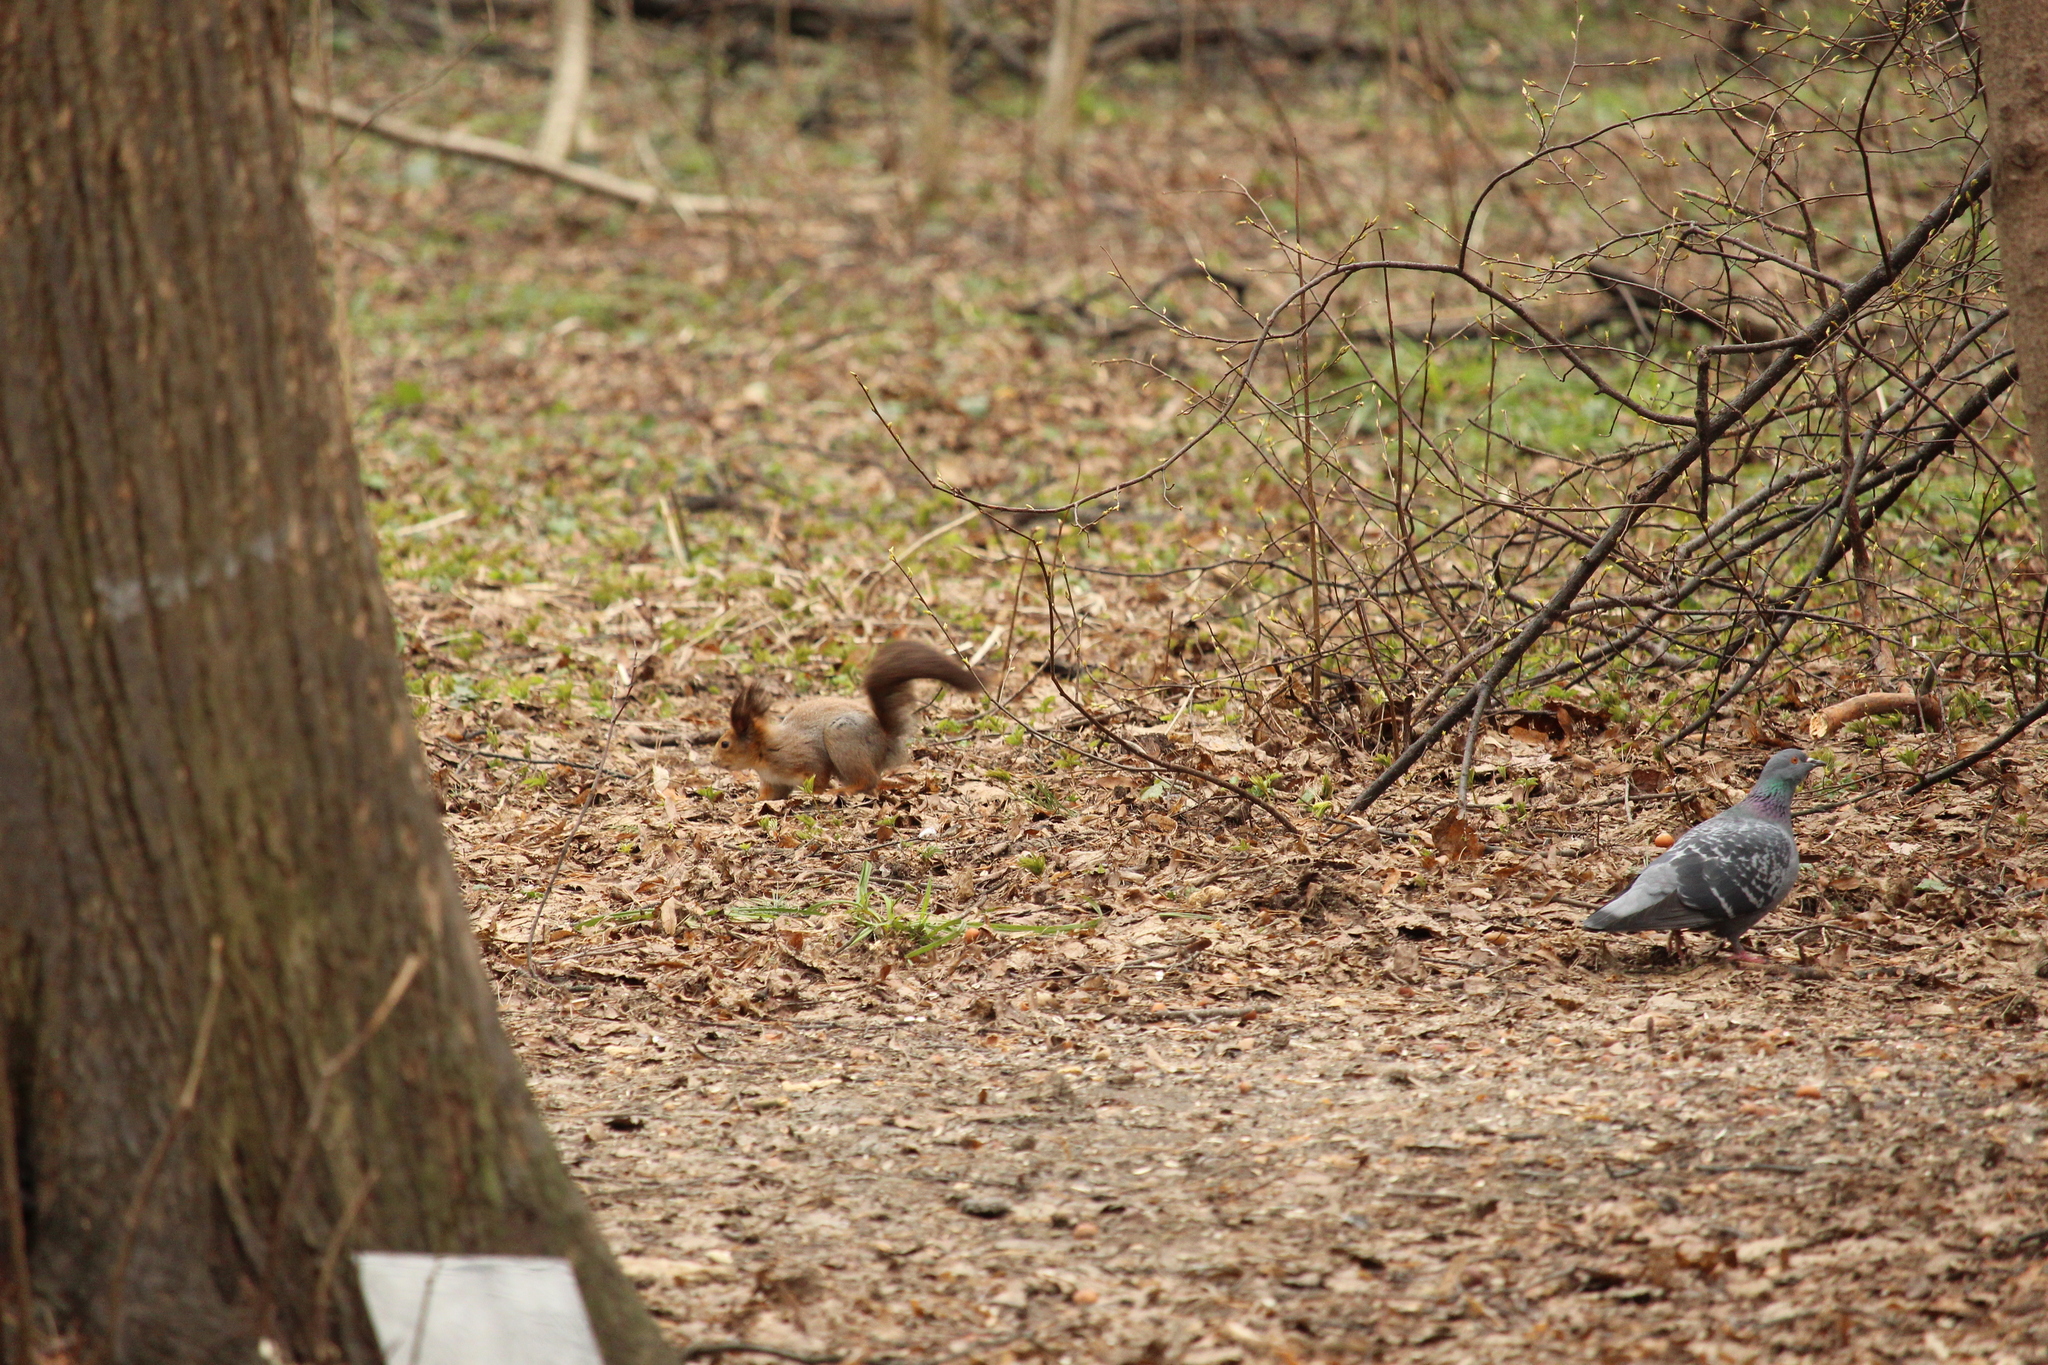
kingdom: Animalia
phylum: Chordata
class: Mammalia
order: Rodentia
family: Sciuridae
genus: Sciurus
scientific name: Sciurus vulgaris
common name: Eurasian red squirrel
